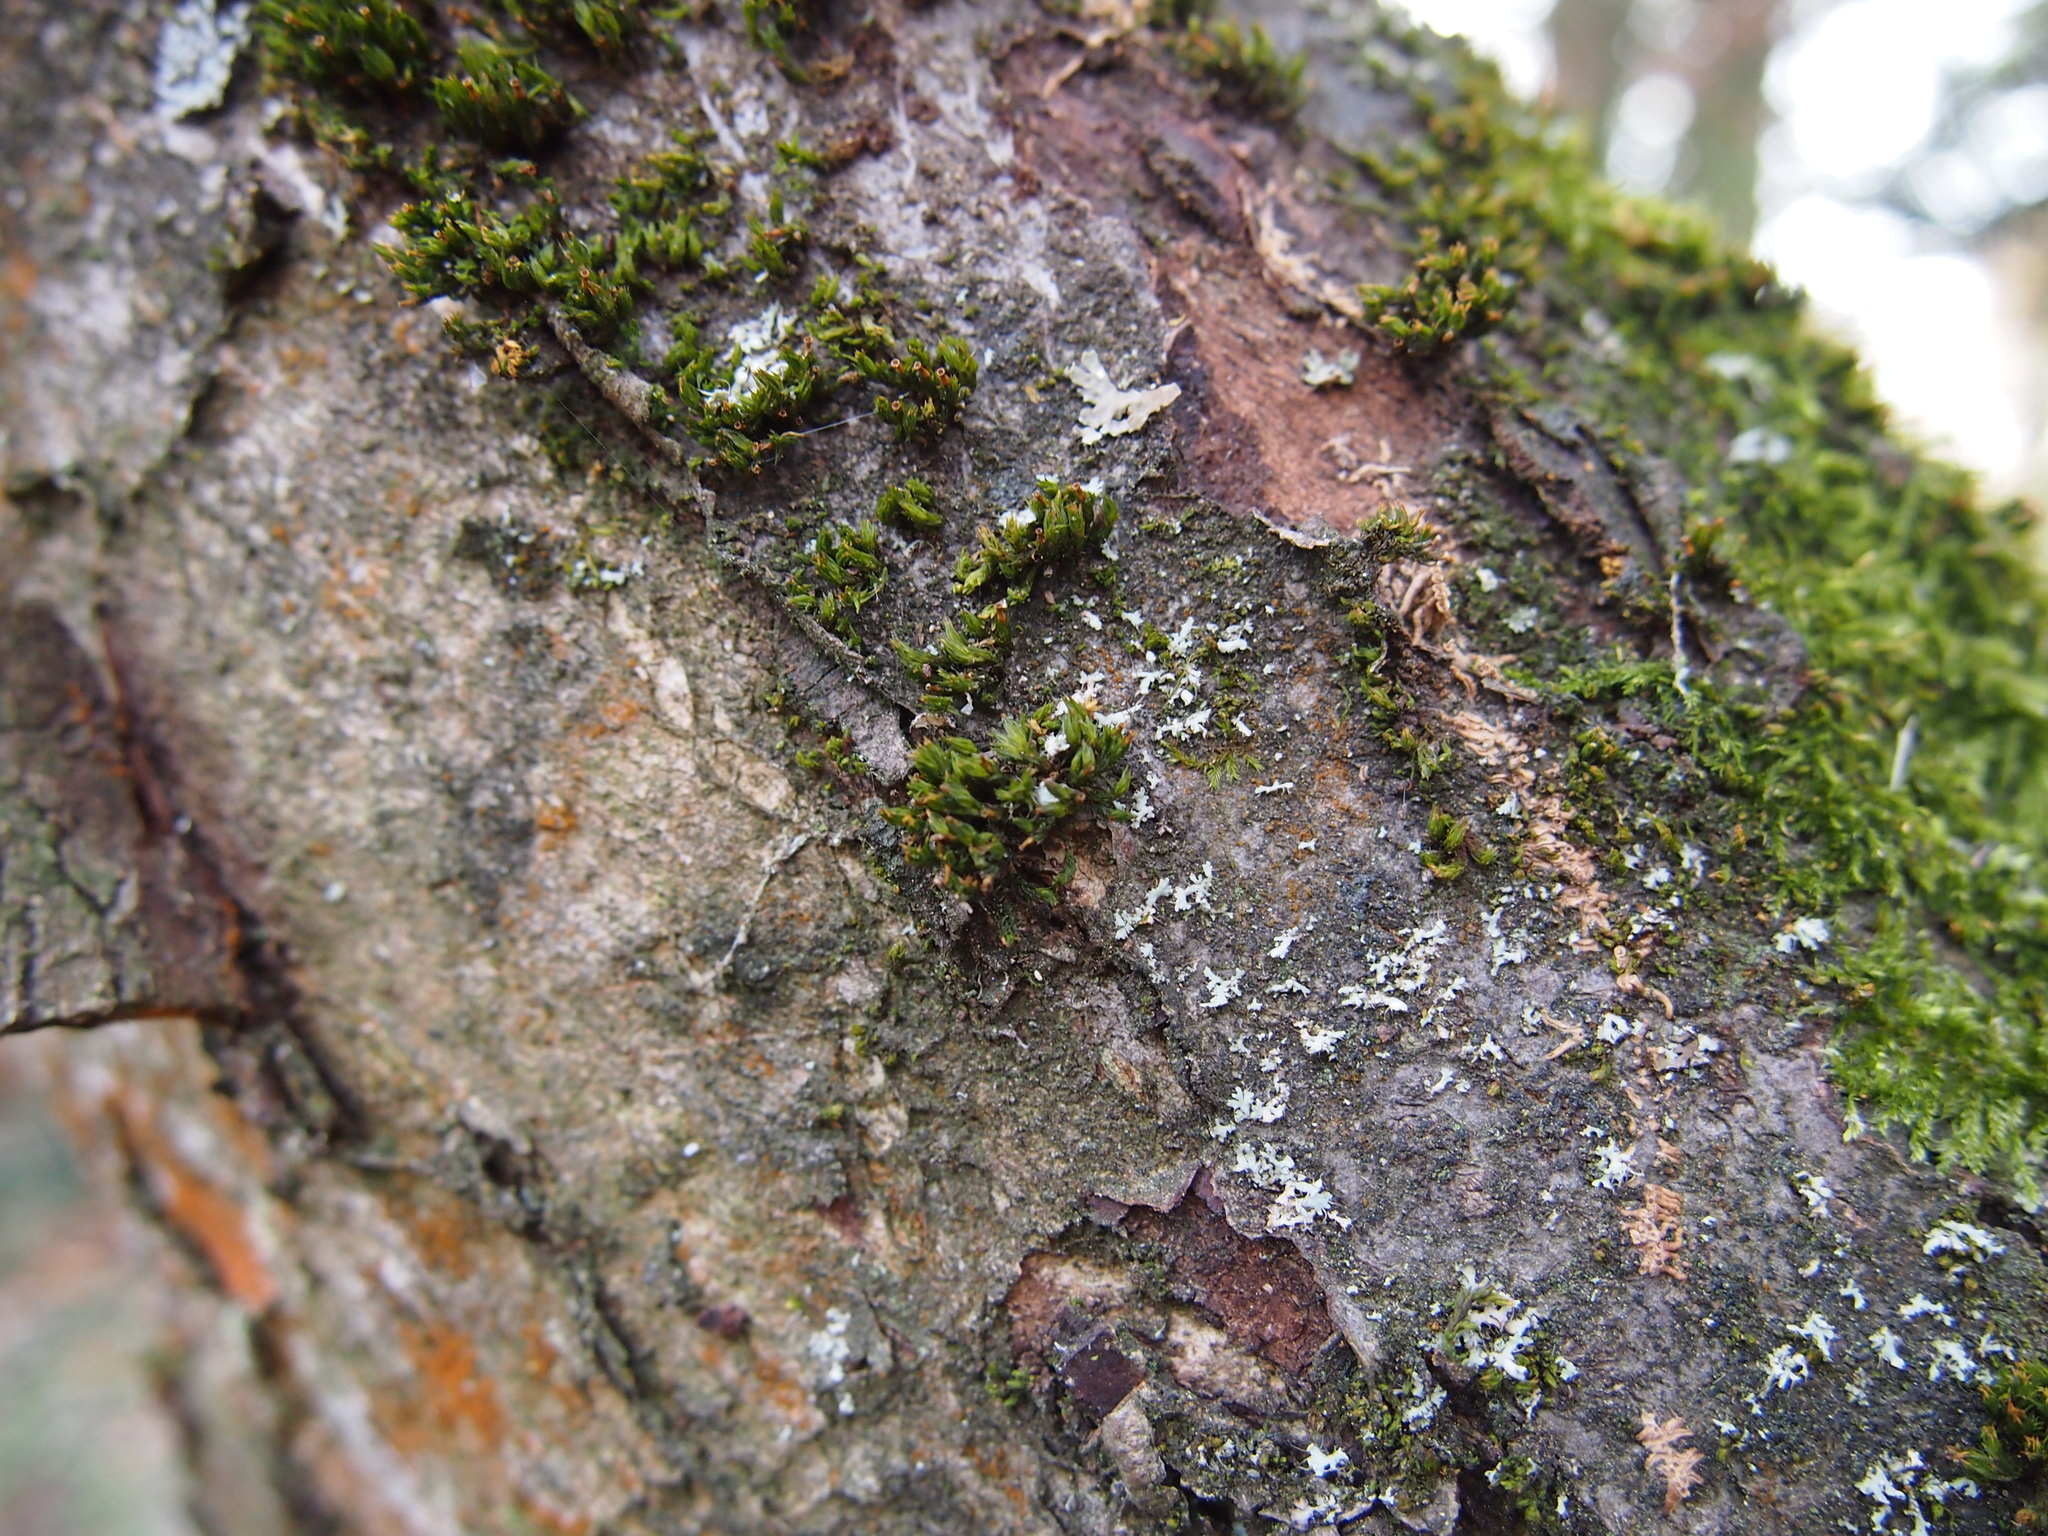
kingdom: Plantae
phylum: Bryophyta
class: Bryopsida
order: Orthotrichales
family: Orthotrichaceae
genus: Orthotrichum
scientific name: Orthotrichum stramineum
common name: Straw bristle-moss
